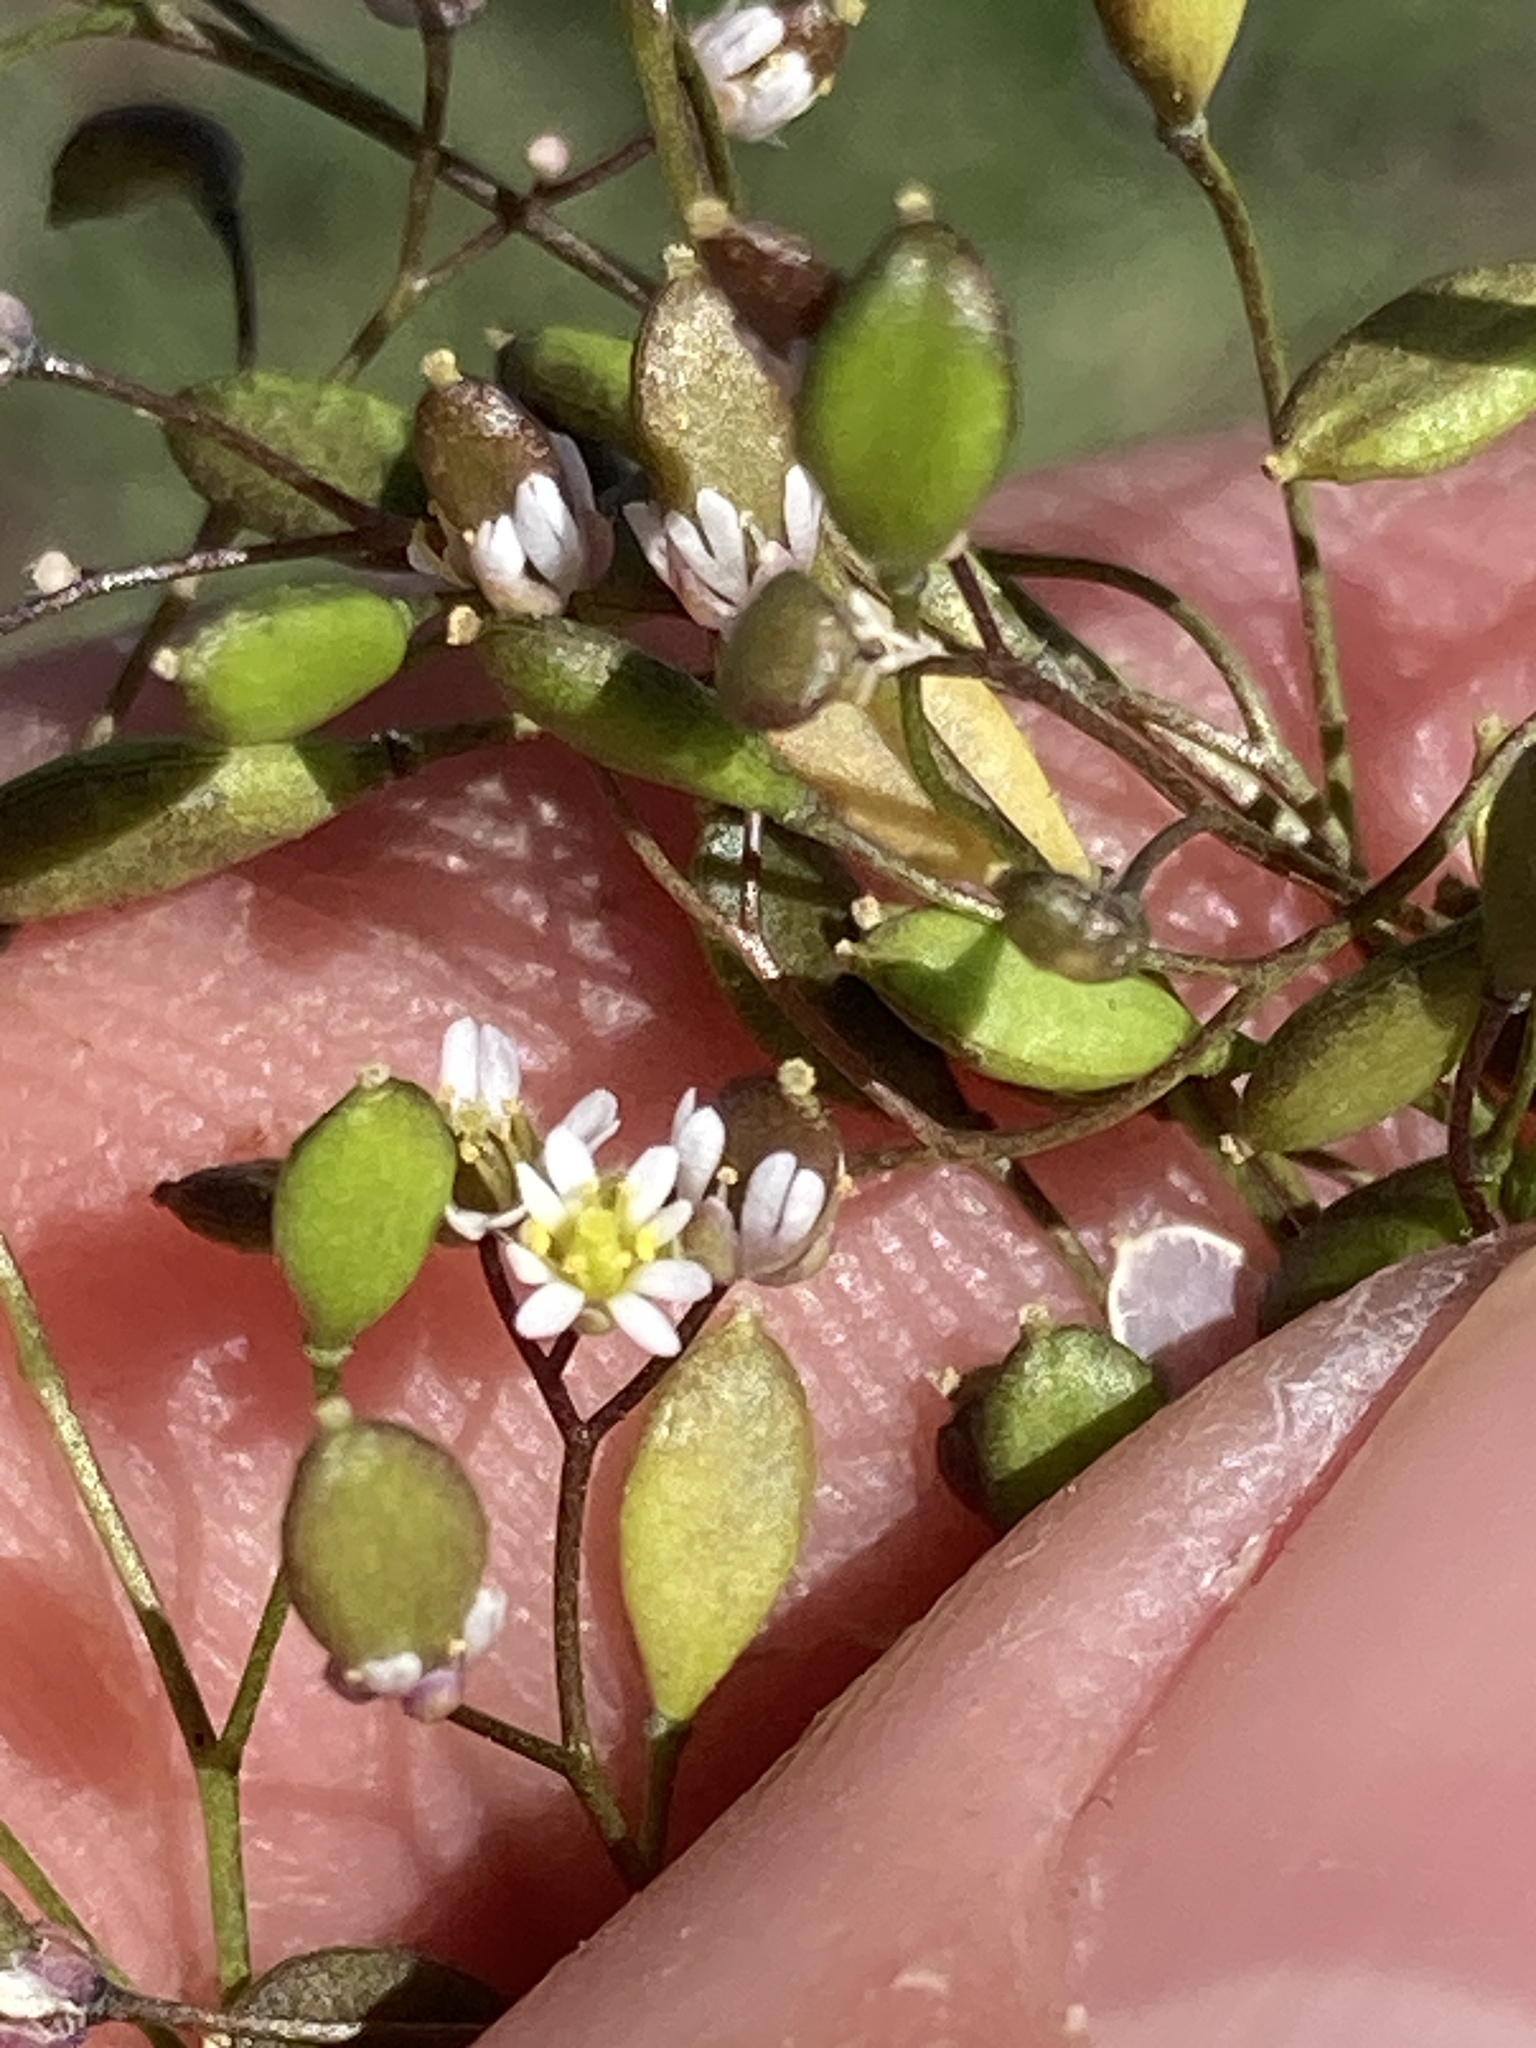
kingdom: Plantae
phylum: Tracheophyta
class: Magnoliopsida
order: Brassicales
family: Brassicaceae
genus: Draba
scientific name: Draba verna
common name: Spring draba
